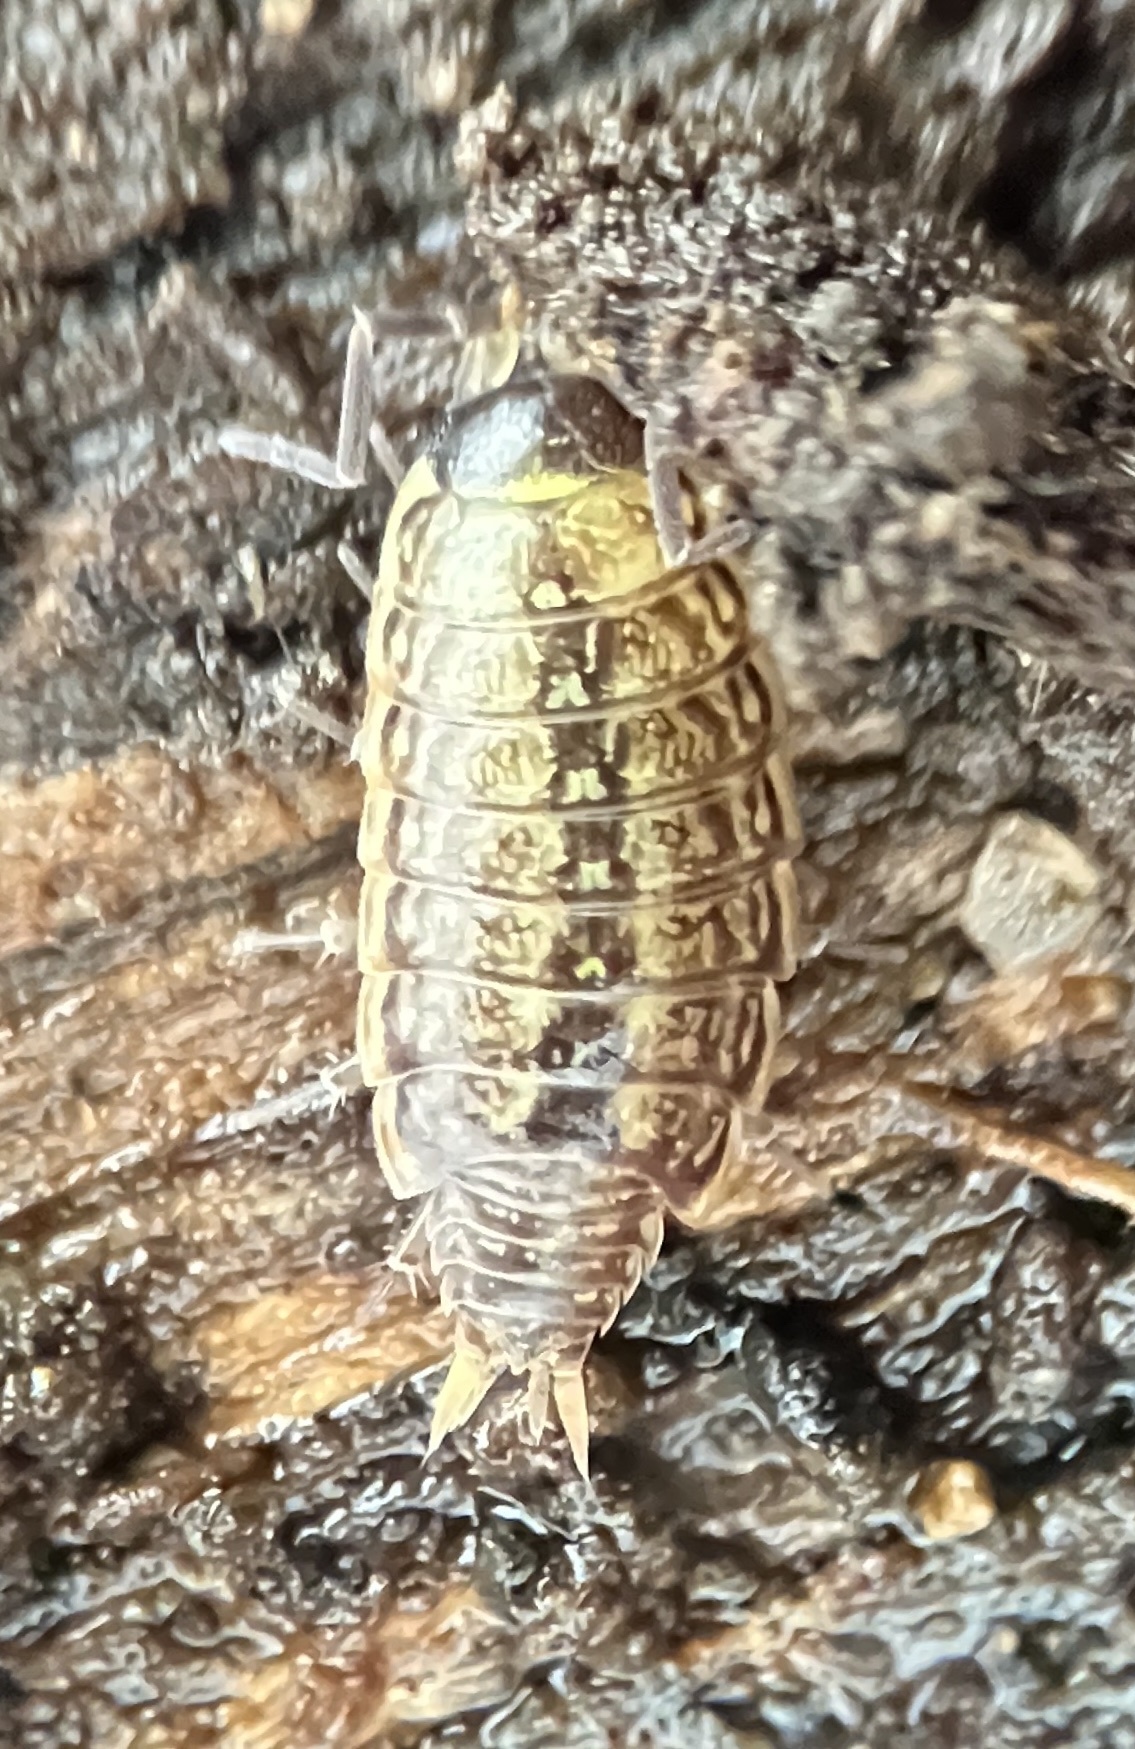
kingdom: Animalia
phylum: Arthropoda
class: Malacostraca
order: Isopoda
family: Philosciidae
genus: Philoscia
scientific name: Philoscia muscorum
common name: Common striped woodlouse
